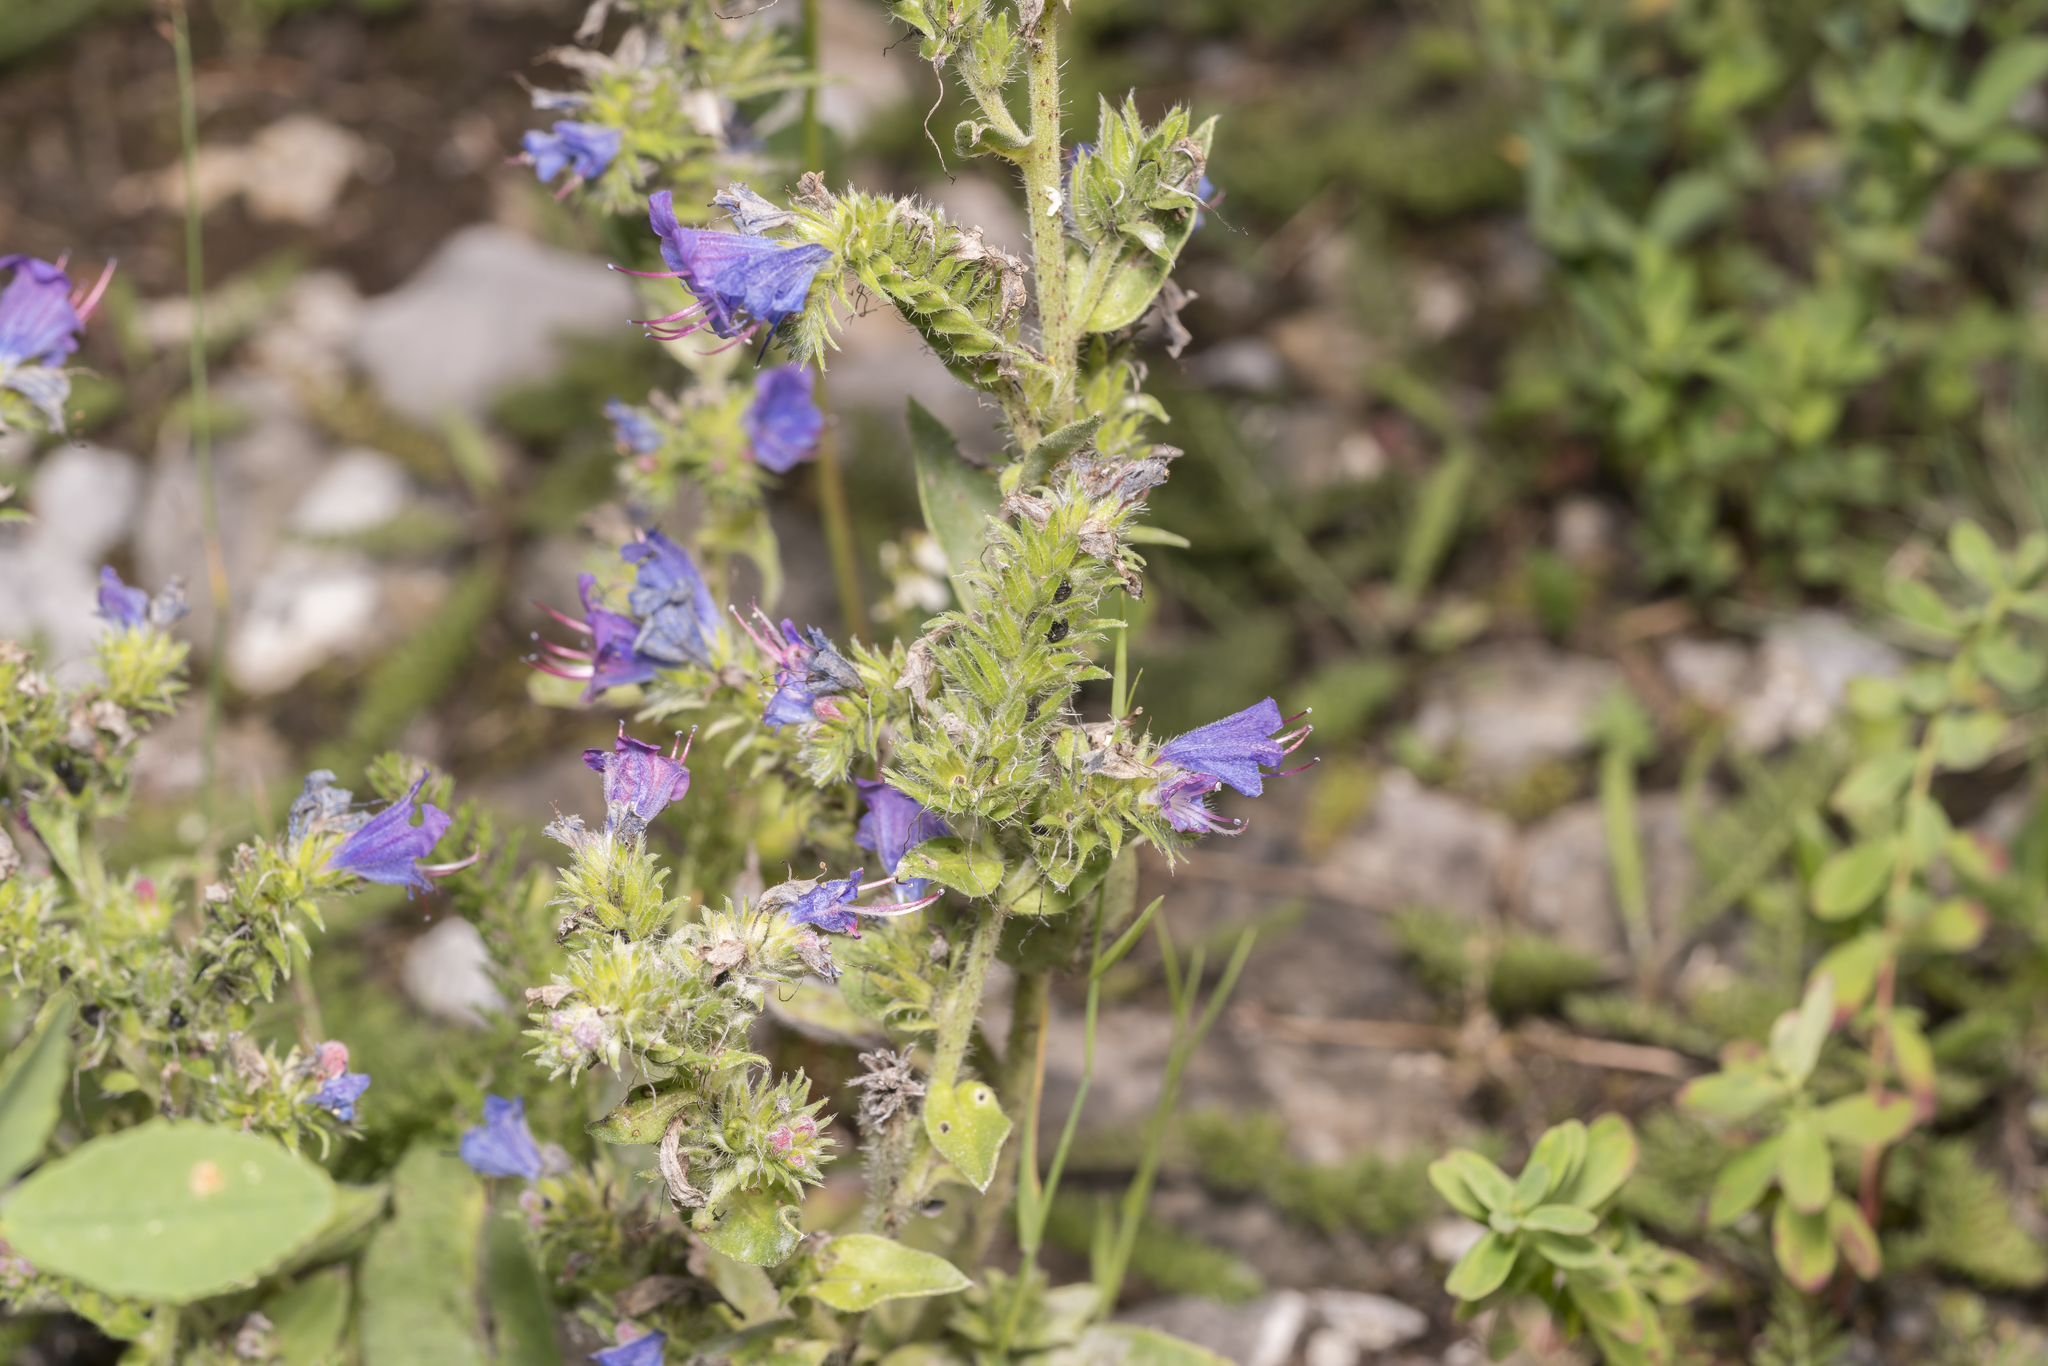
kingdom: Plantae
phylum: Tracheophyta
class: Magnoliopsida
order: Boraginales
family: Boraginaceae
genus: Echium
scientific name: Echium vulgare
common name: Common viper's bugloss
